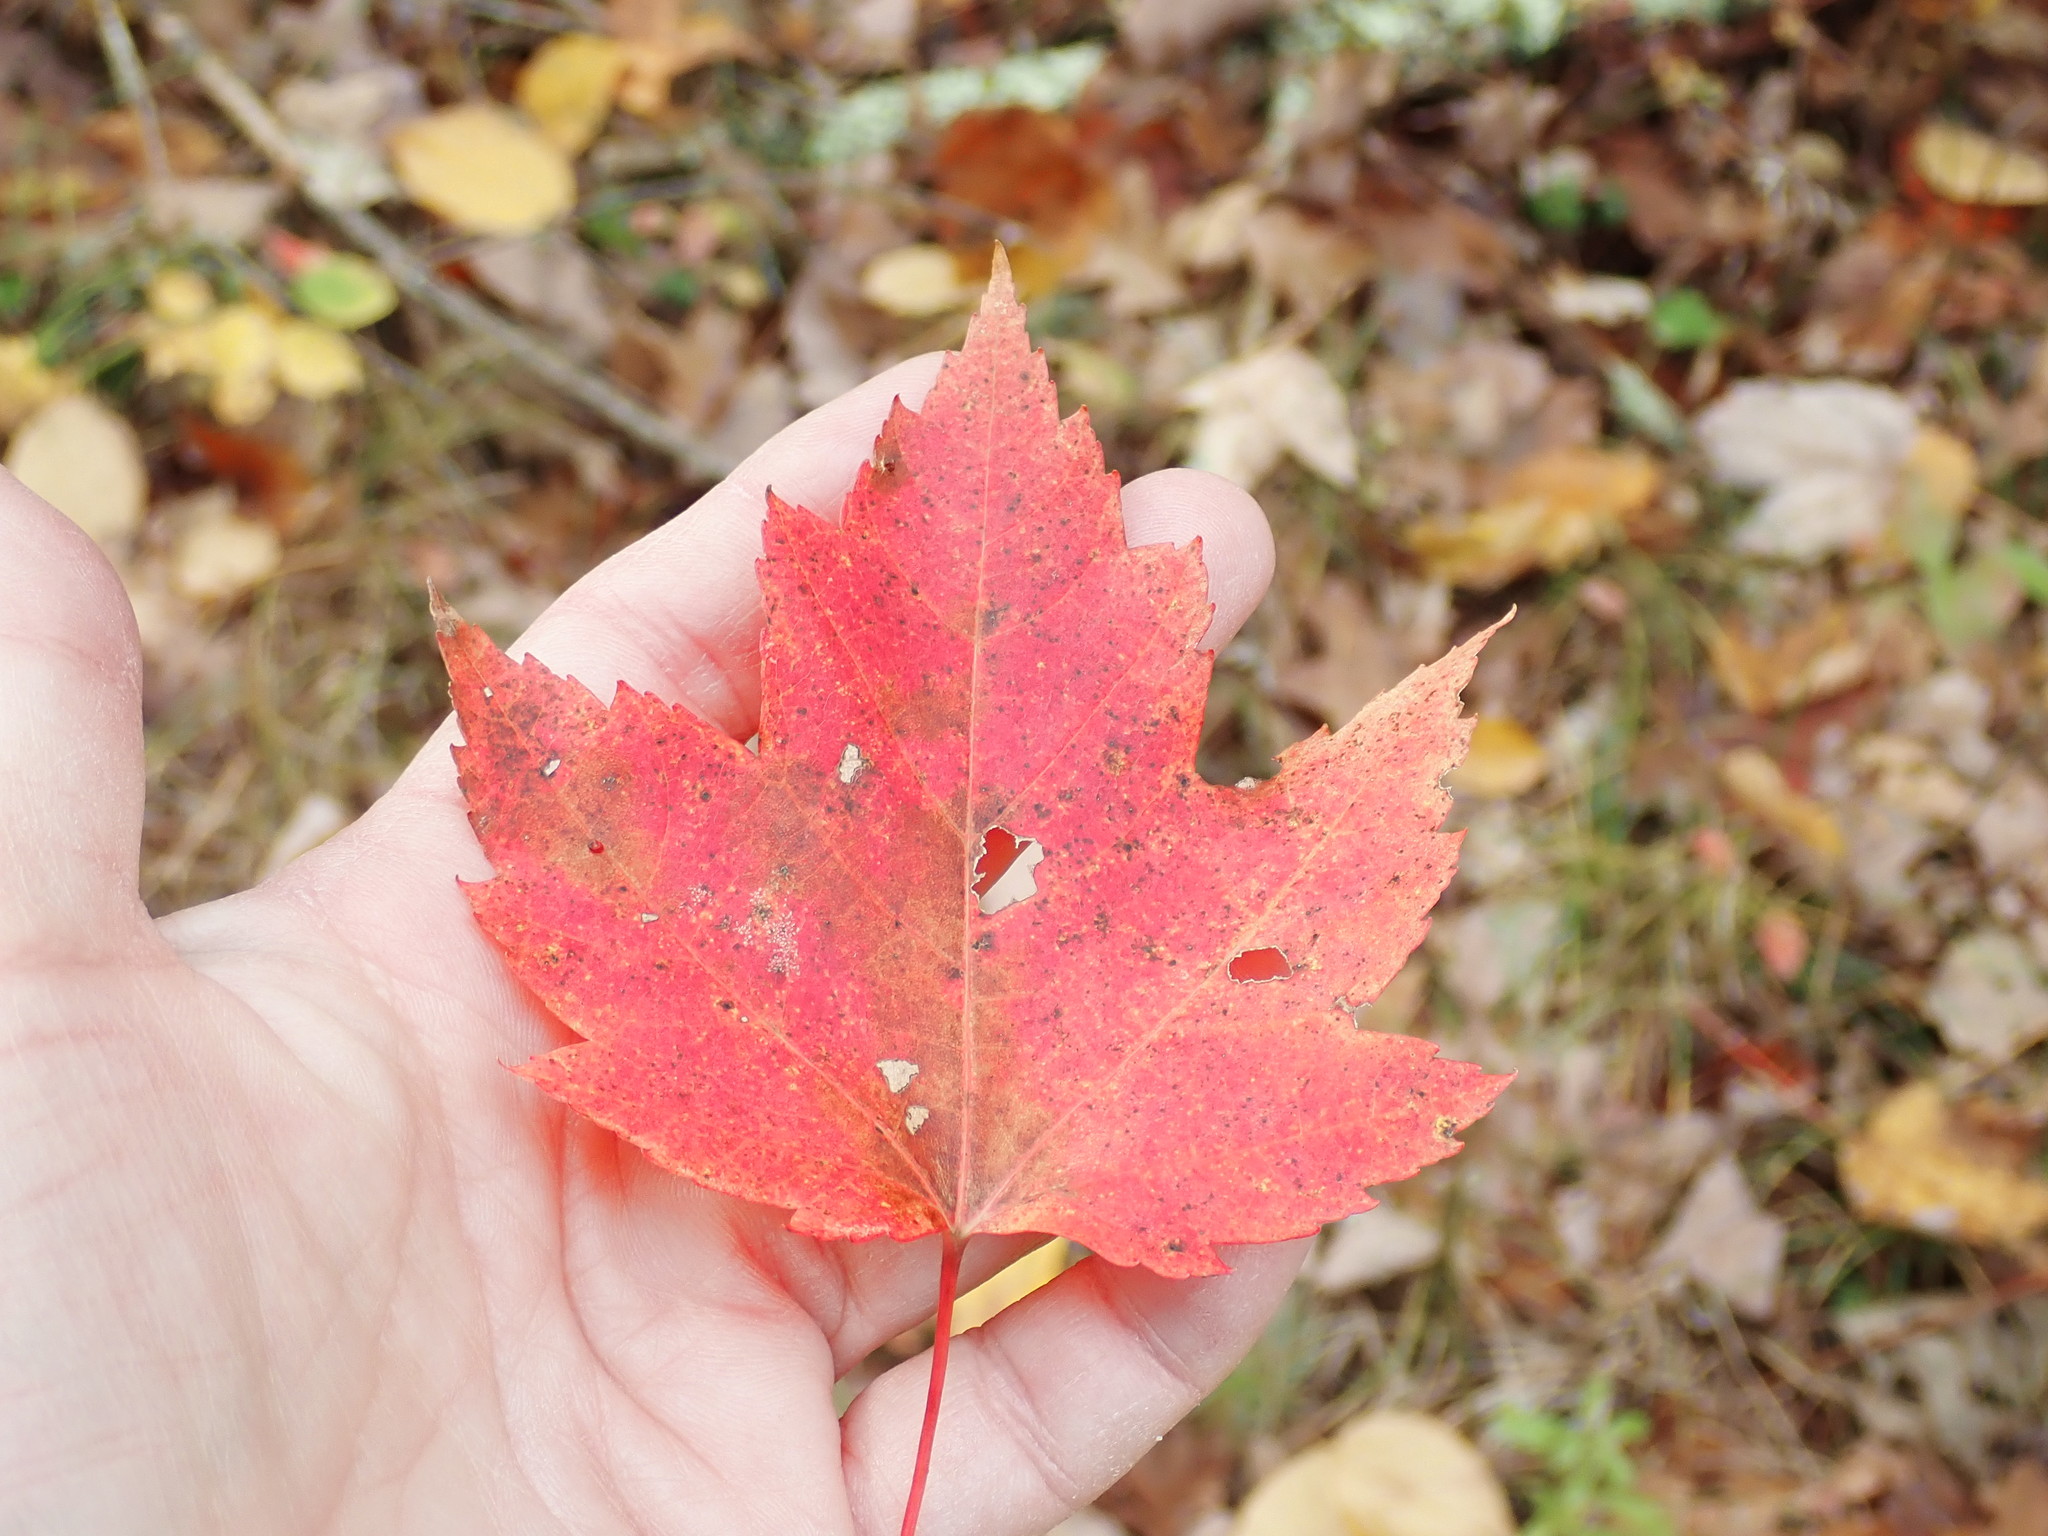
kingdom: Plantae
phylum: Tracheophyta
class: Magnoliopsida
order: Sapindales
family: Sapindaceae
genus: Acer
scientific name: Acer rubrum
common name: Red maple
